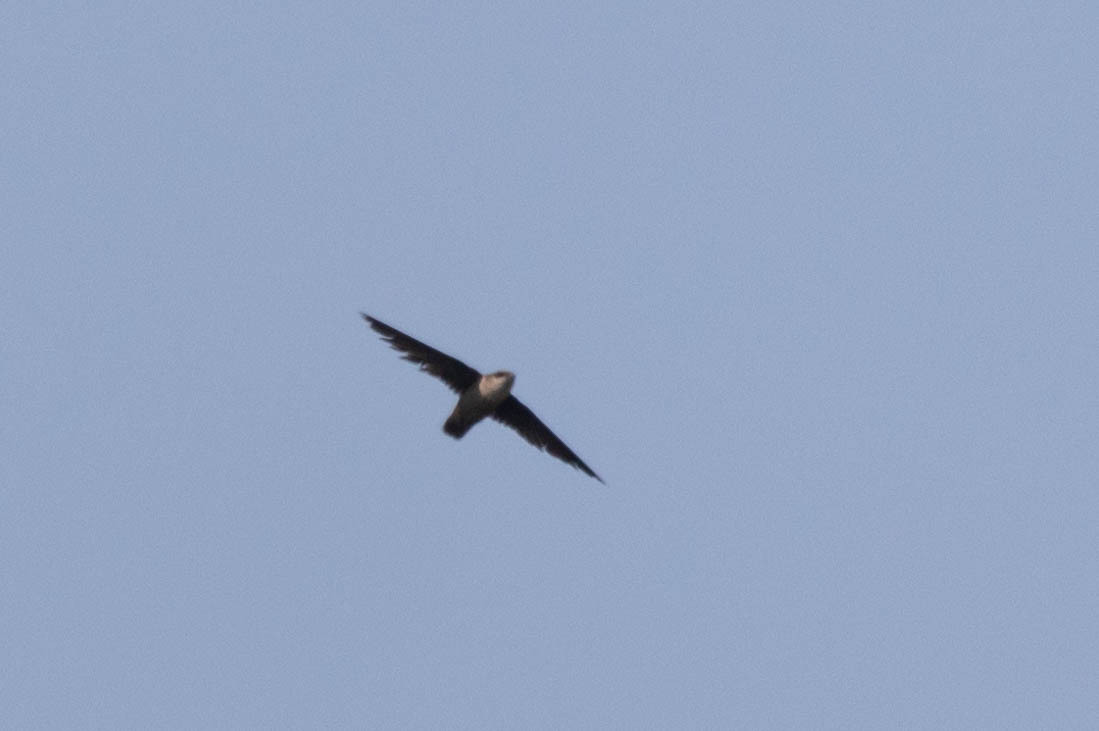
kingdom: Animalia
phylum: Chordata
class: Aves
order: Apodiformes
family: Apodidae
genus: Chaetura
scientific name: Chaetura vauxi
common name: Vaux's swift
